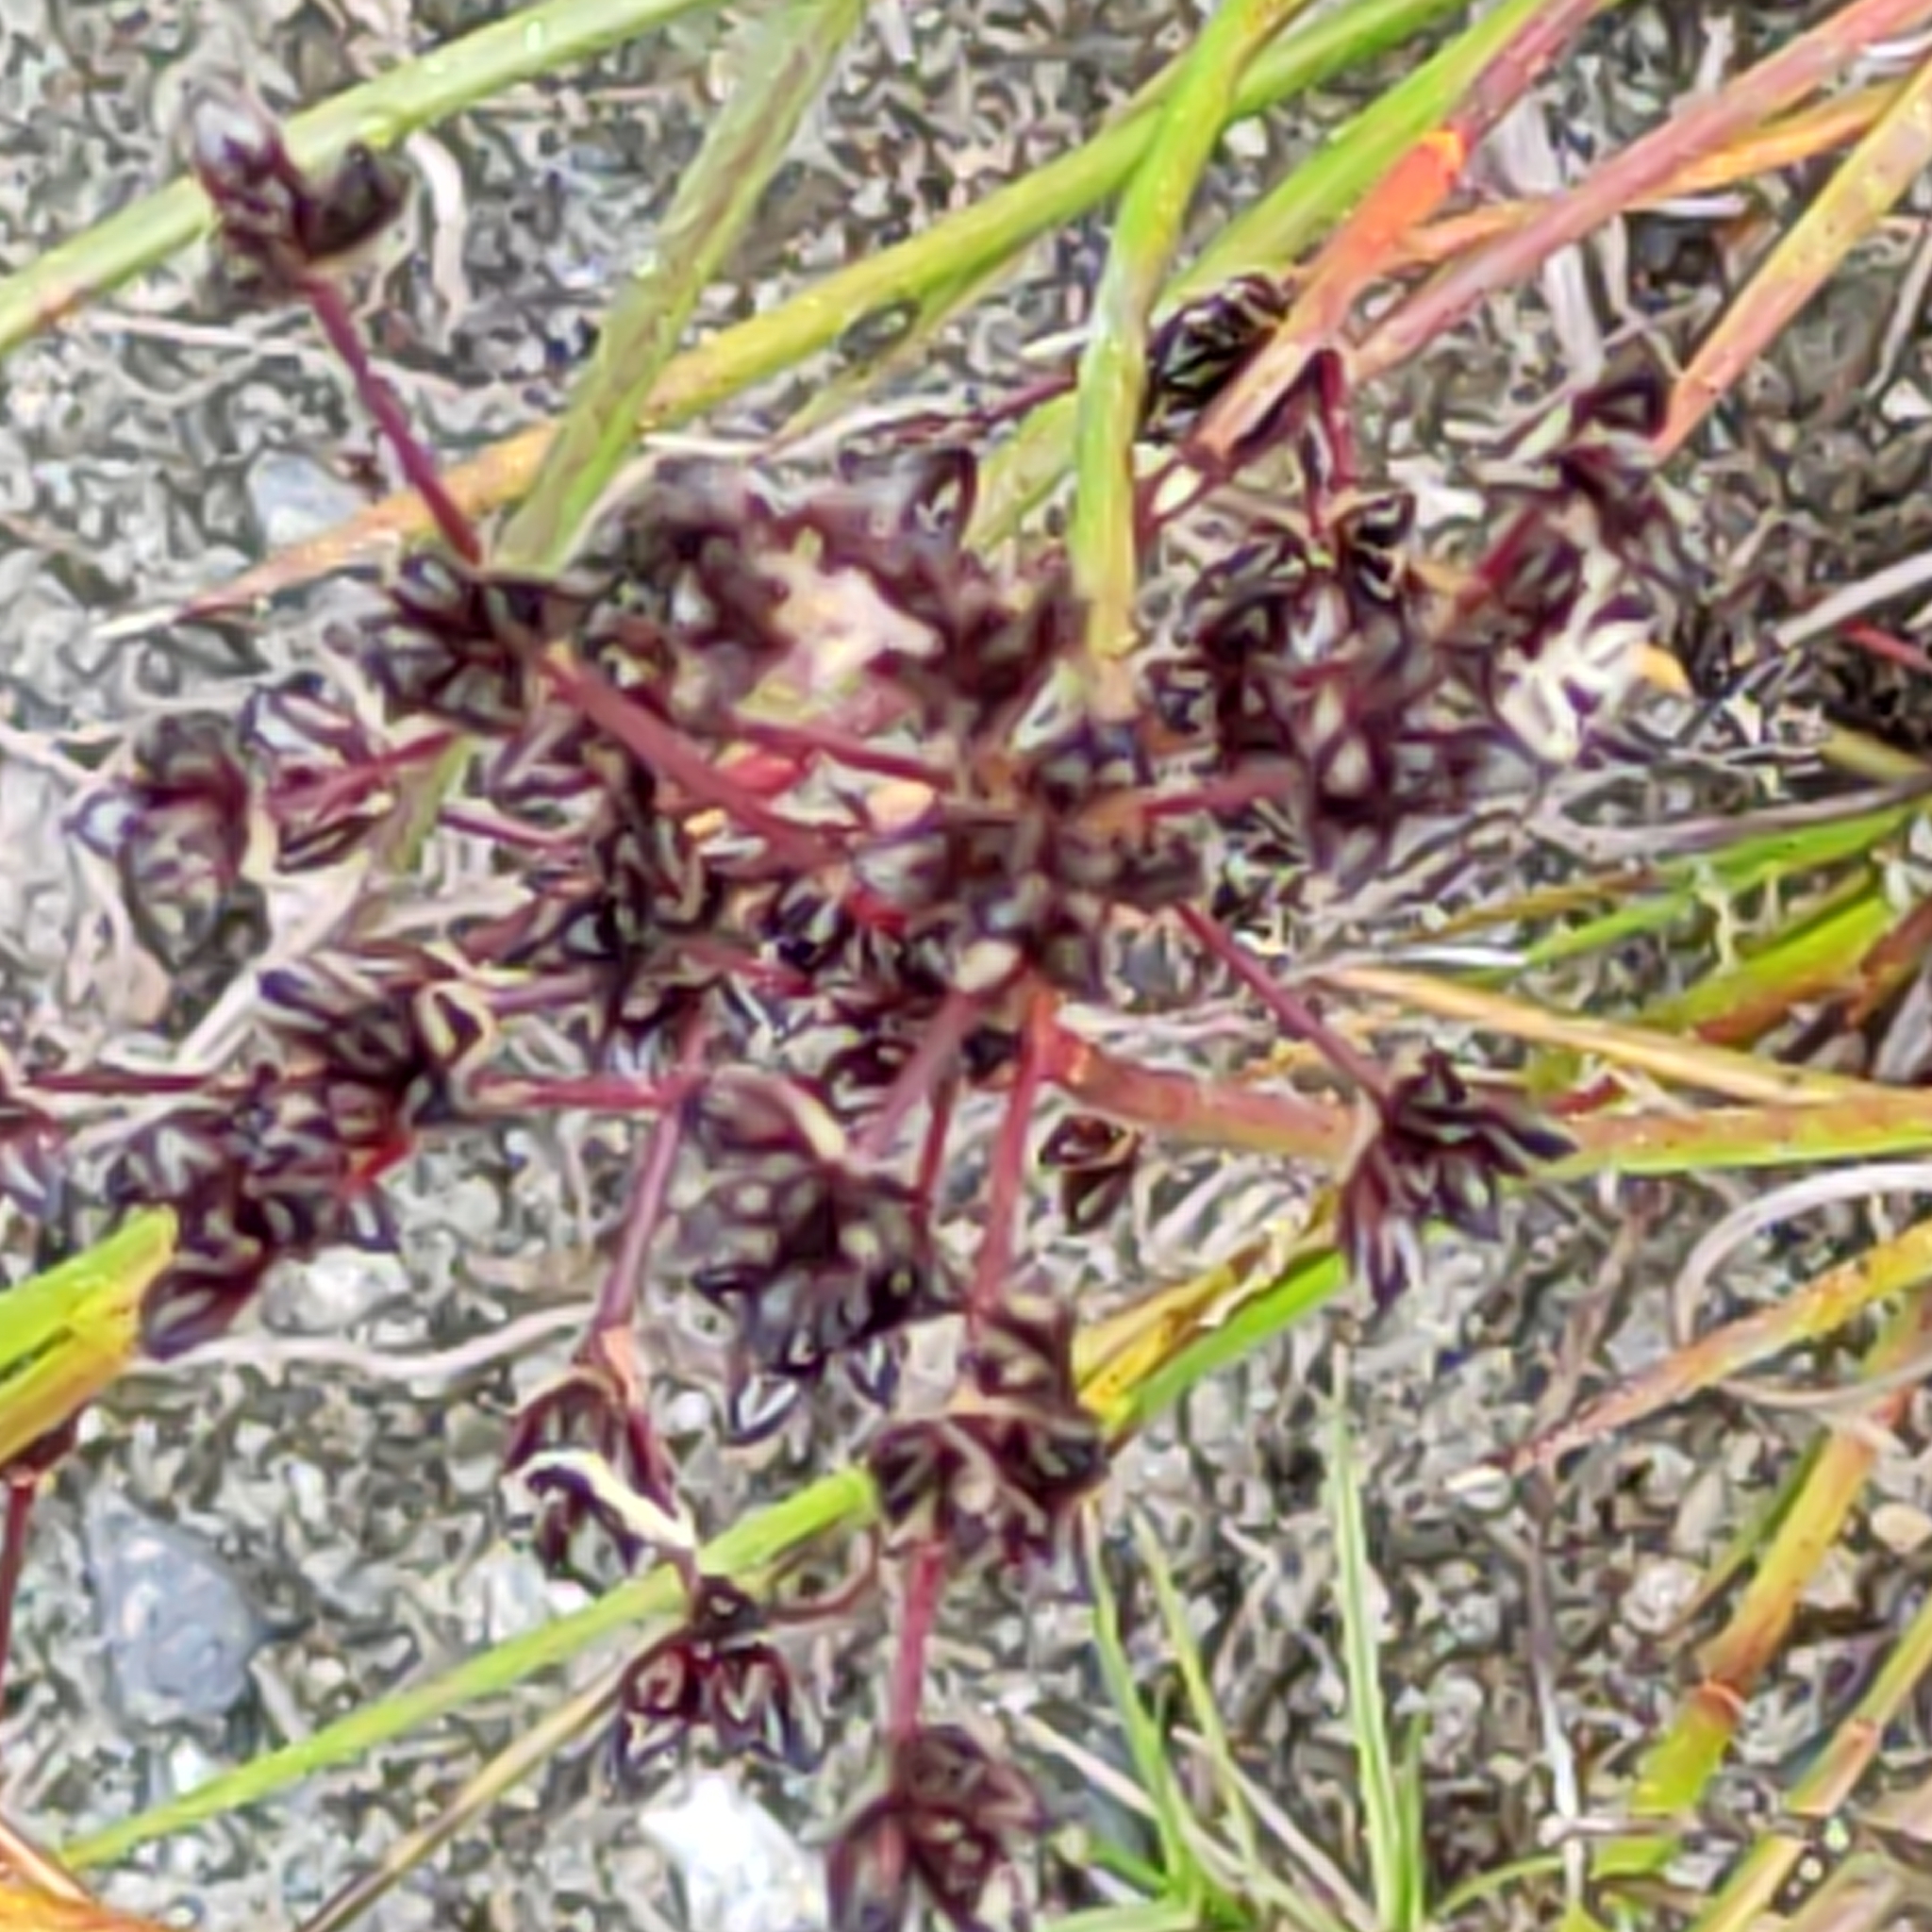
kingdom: Plantae
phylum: Tracheophyta
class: Liliopsida
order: Poales
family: Juncaceae
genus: Juncus
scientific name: Juncus articulatus
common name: Jointed rush
